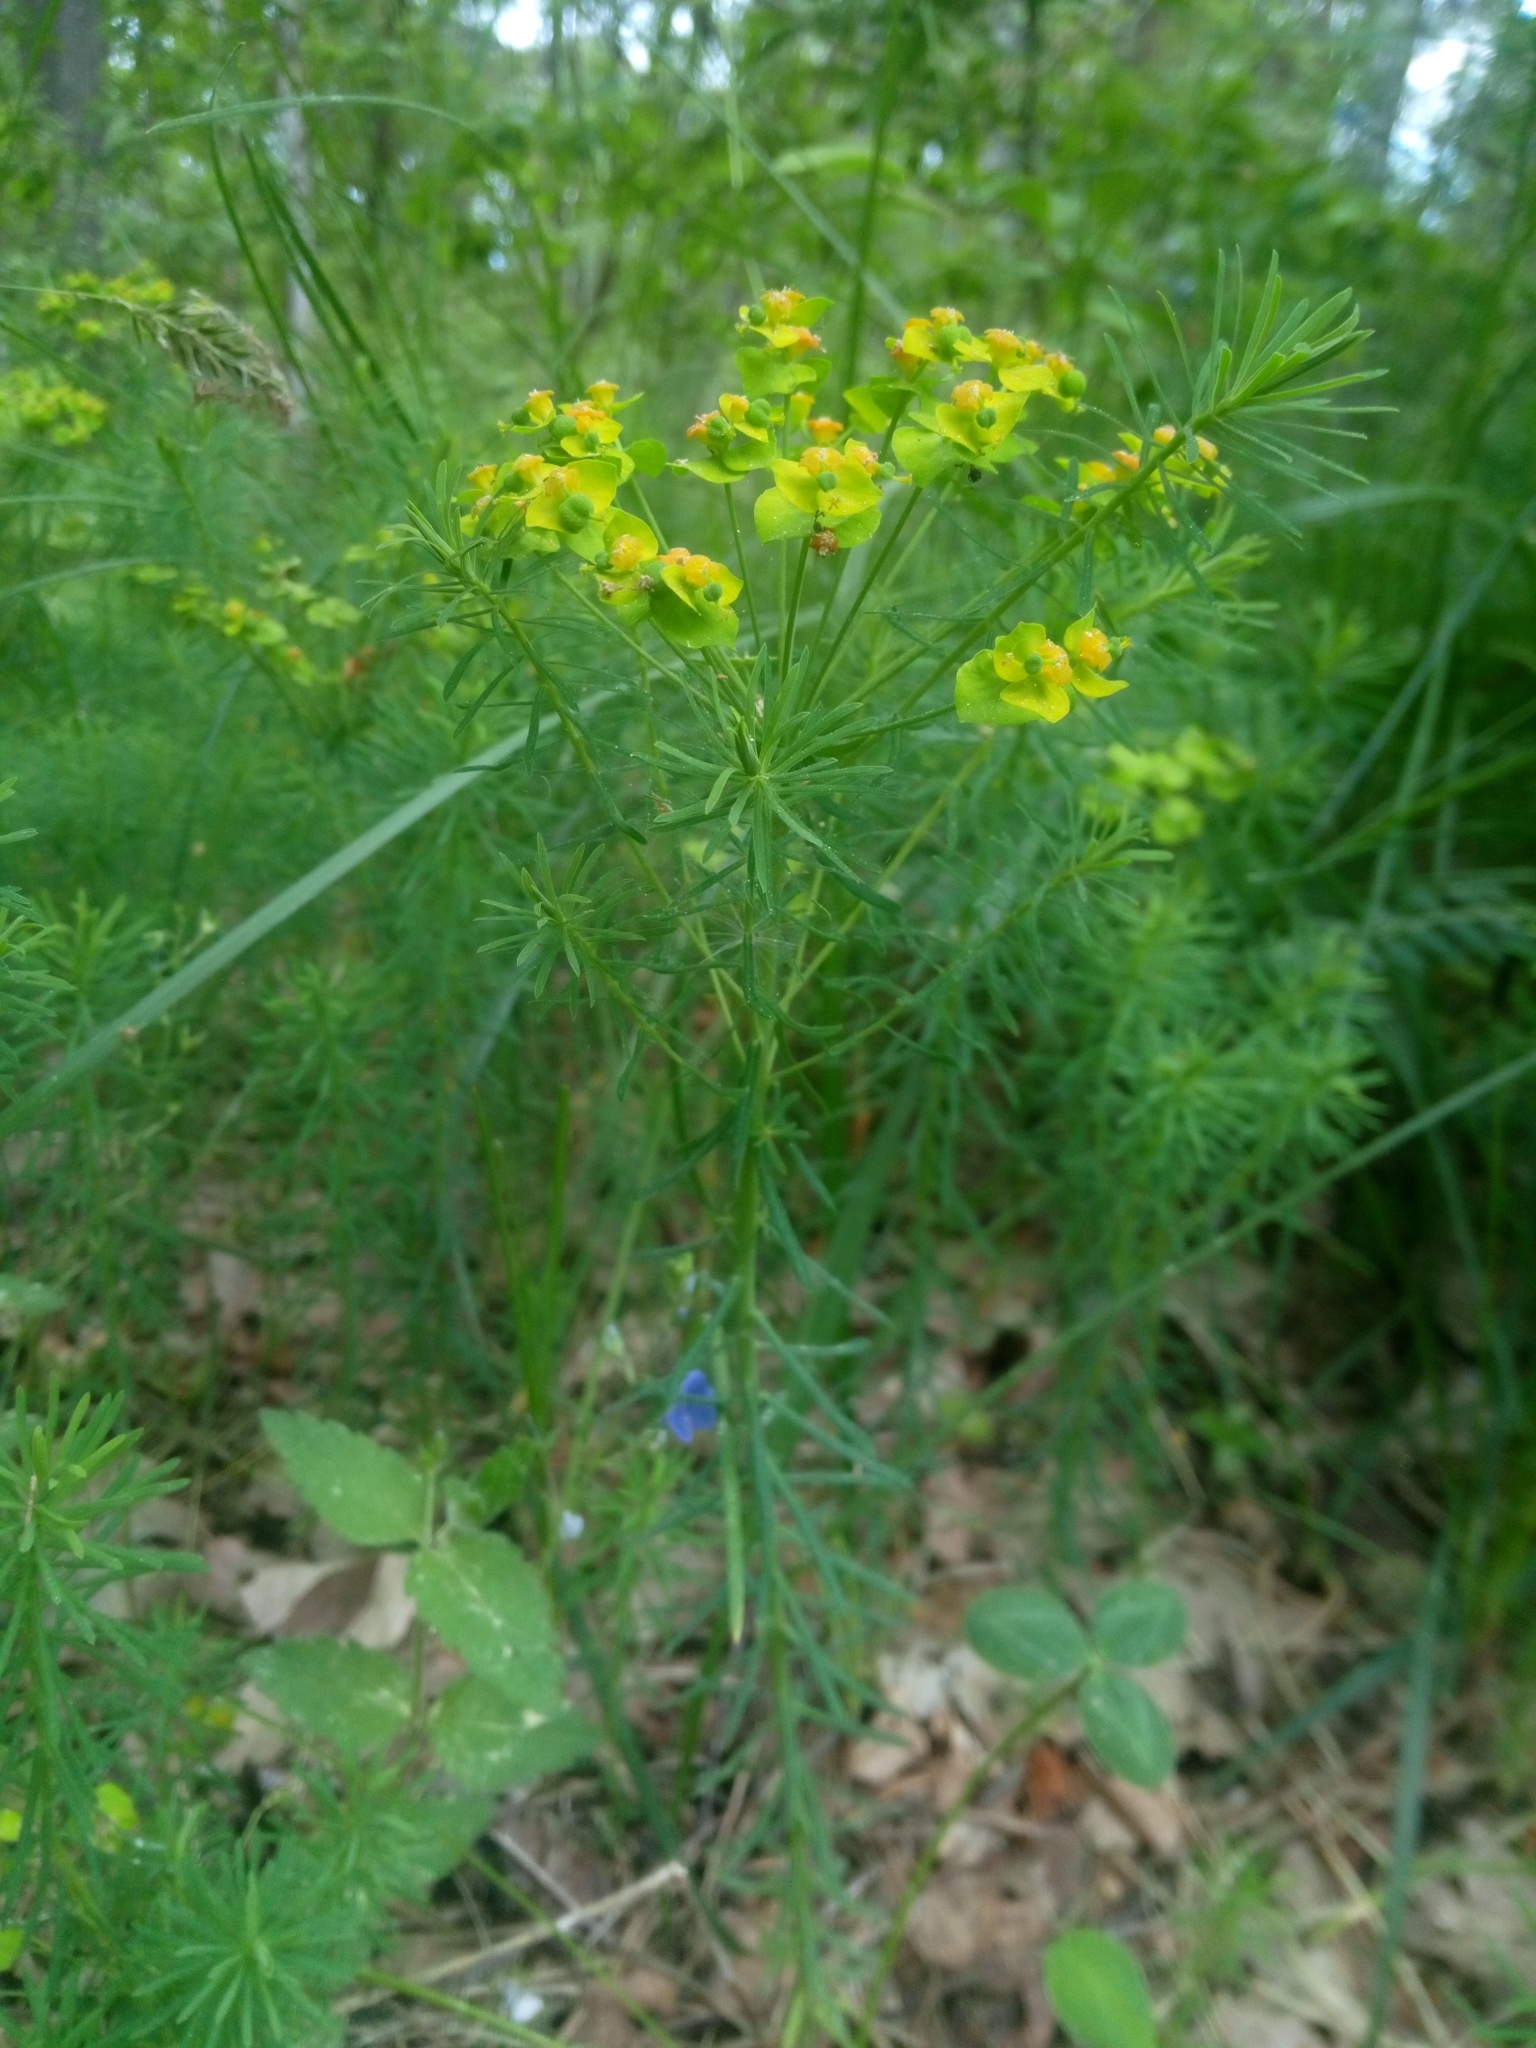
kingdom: Plantae
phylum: Tracheophyta
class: Magnoliopsida
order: Malpighiales
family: Euphorbiaceae
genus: Euphorbia
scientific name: Euphorbia cyparissias
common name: Cypress spurge
